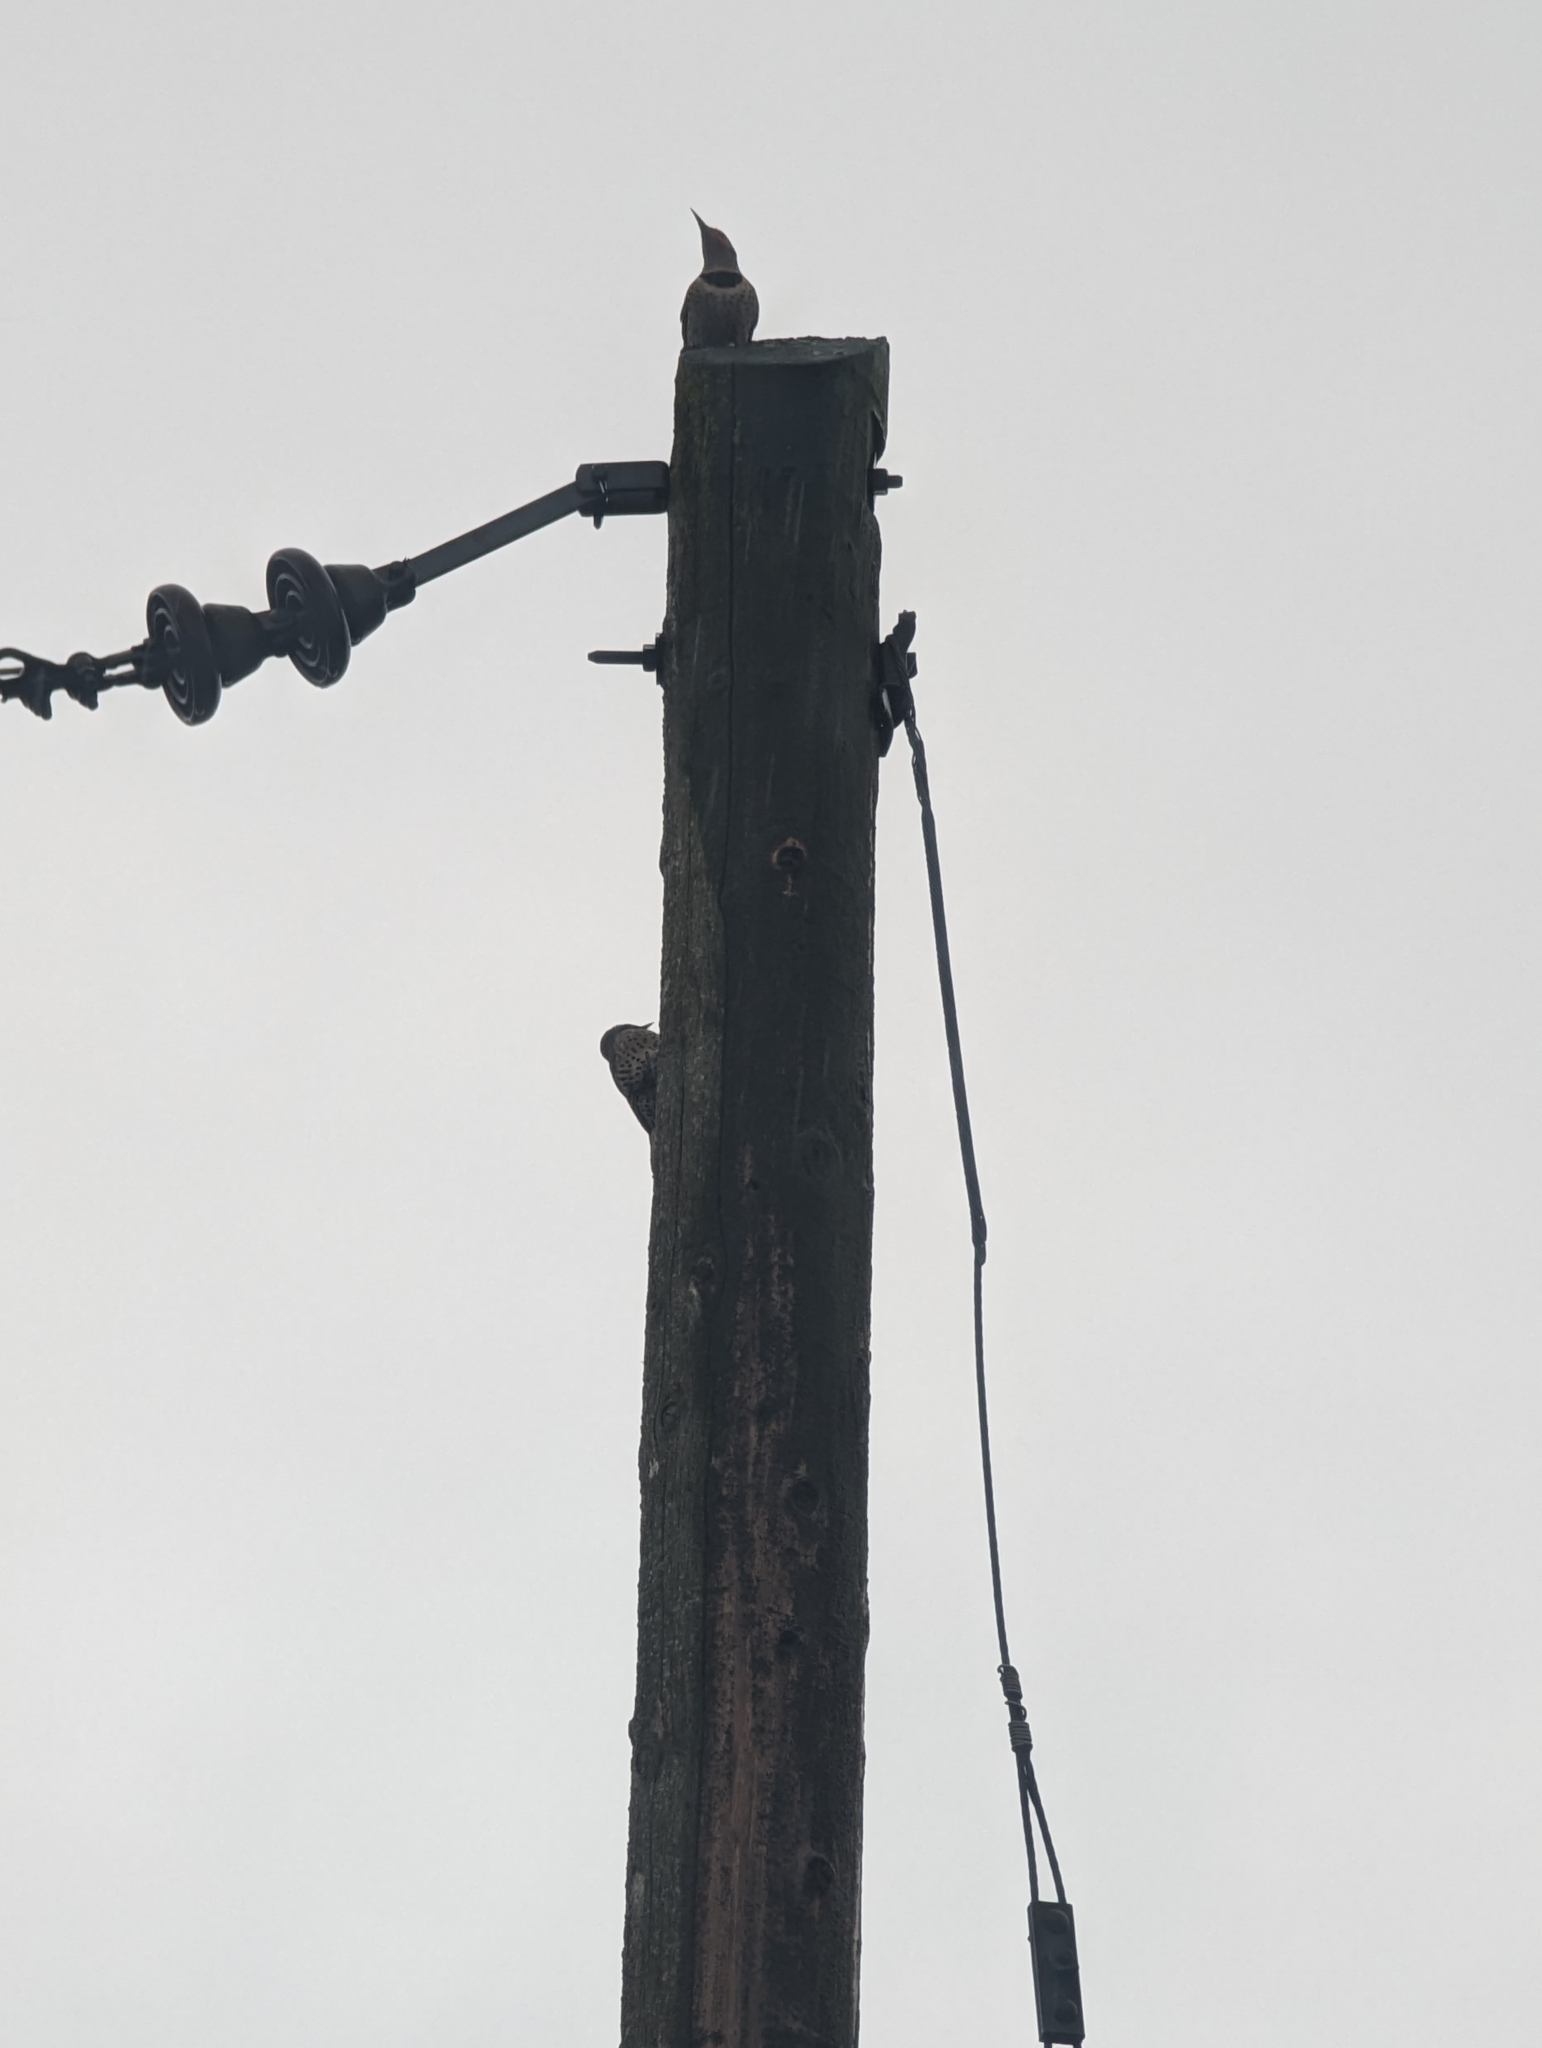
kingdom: Animalia
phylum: Chordata
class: Aves
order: Piciformes
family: Picidae
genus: Colaptes
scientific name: Colaptes auratus
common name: Northern flicker
